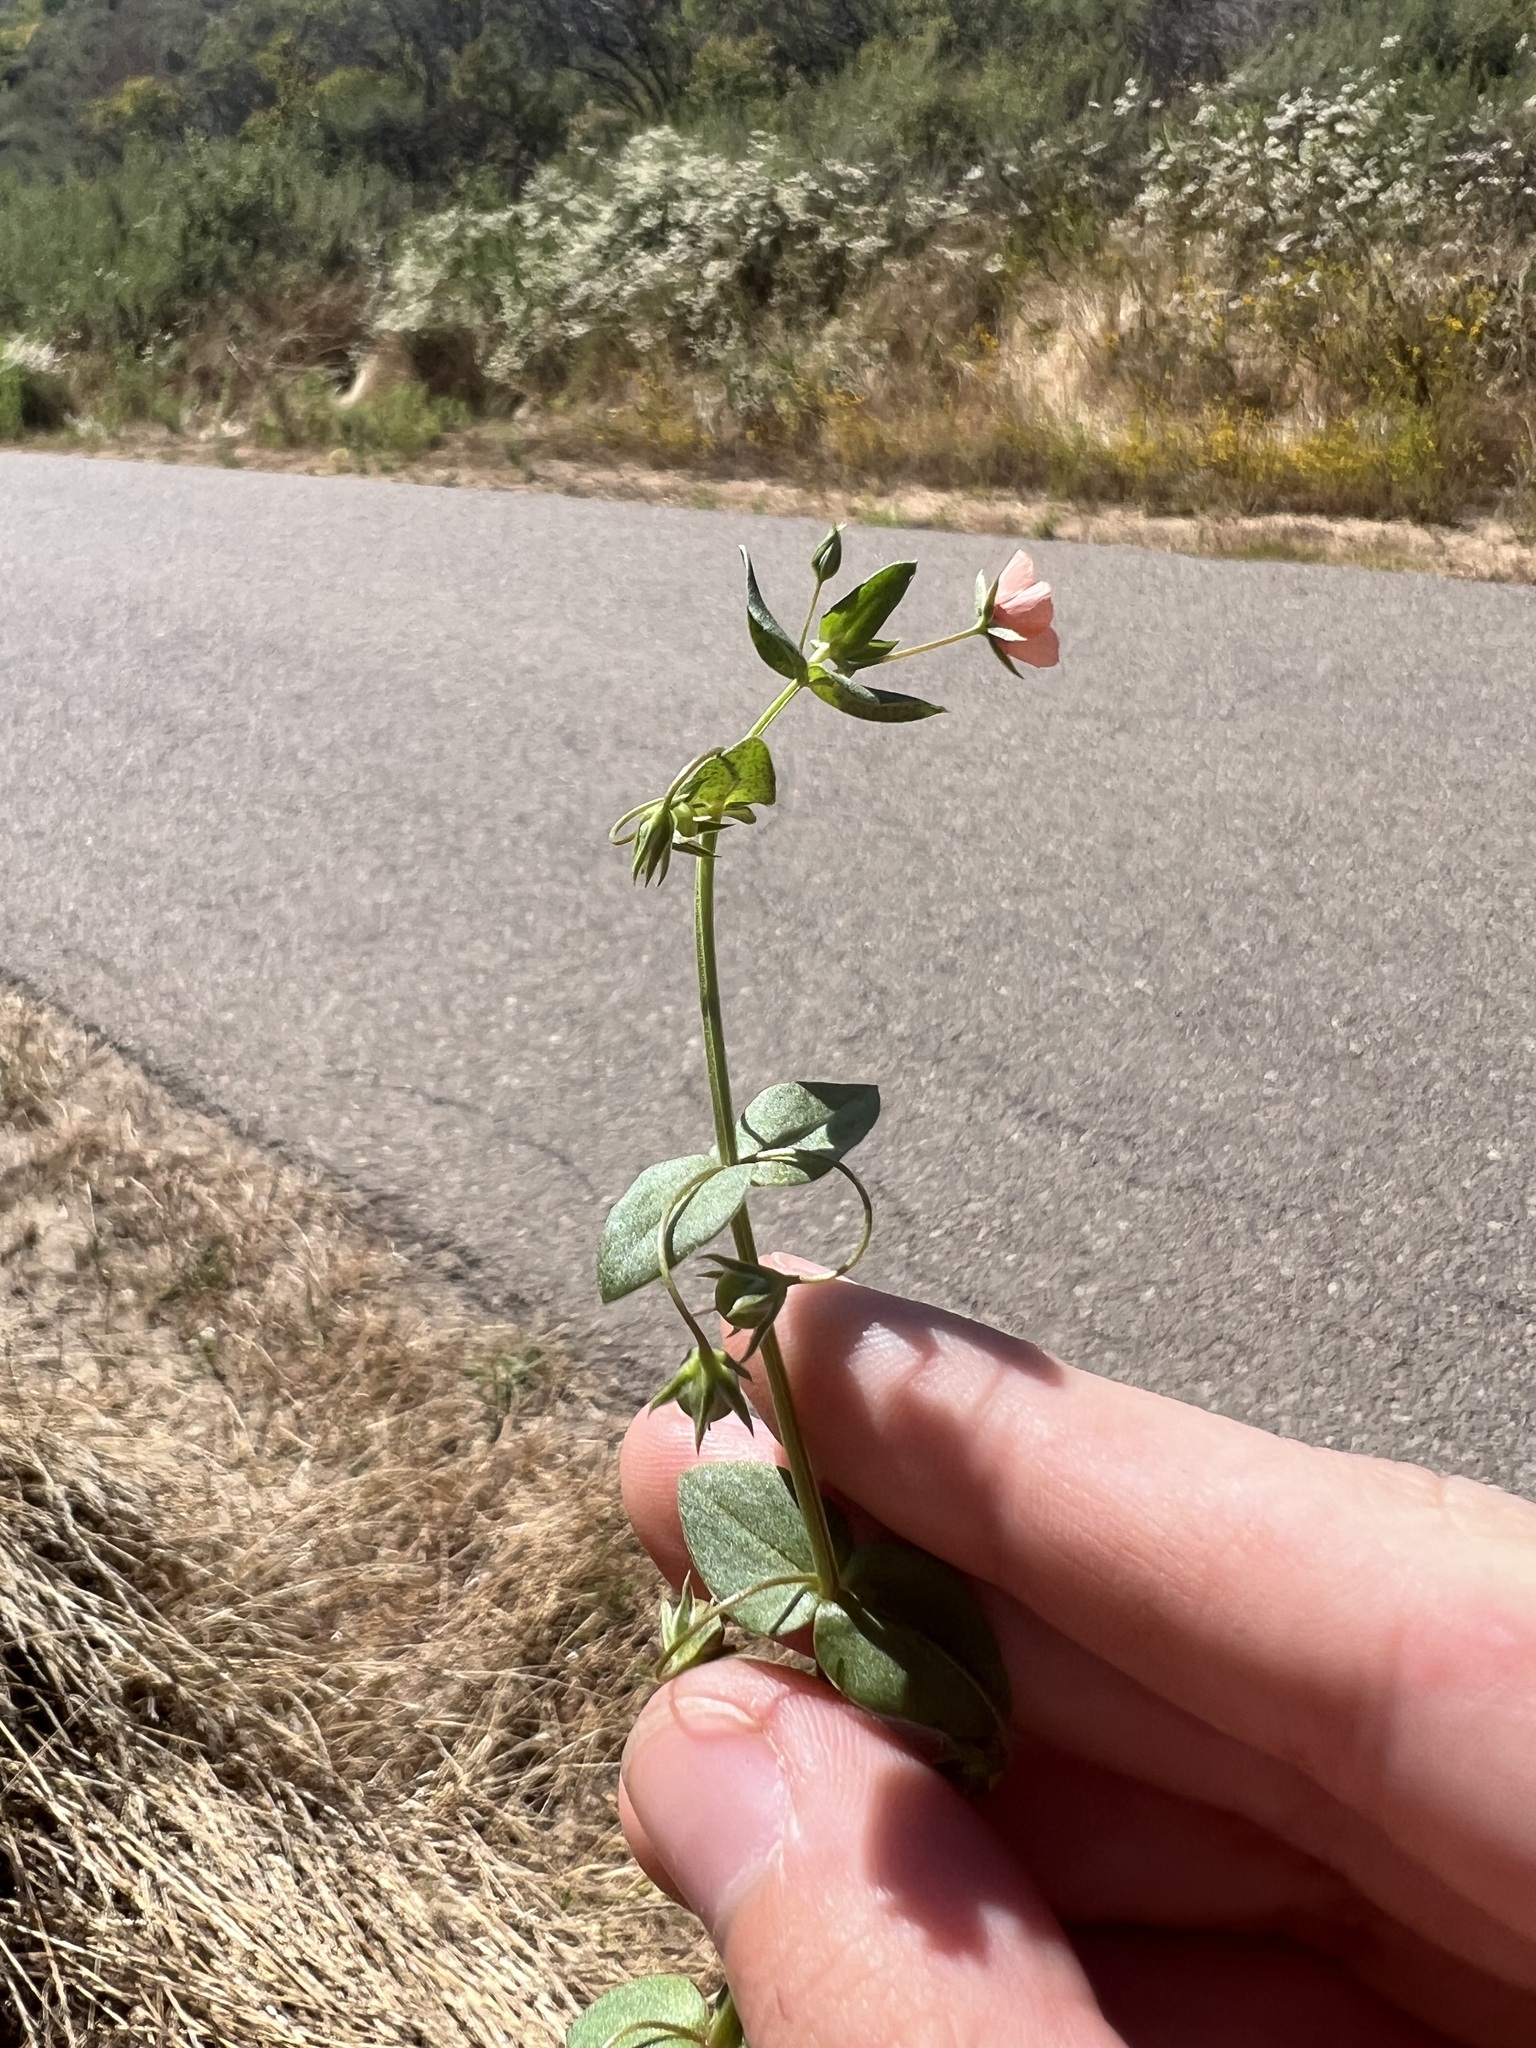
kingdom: Plantae
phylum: Tracheophyta
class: Magnoliopsida
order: Ericales
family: Primulaceae
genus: Lysimachia
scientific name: Lysimachia arvensis
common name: Scarlet pimpernel
